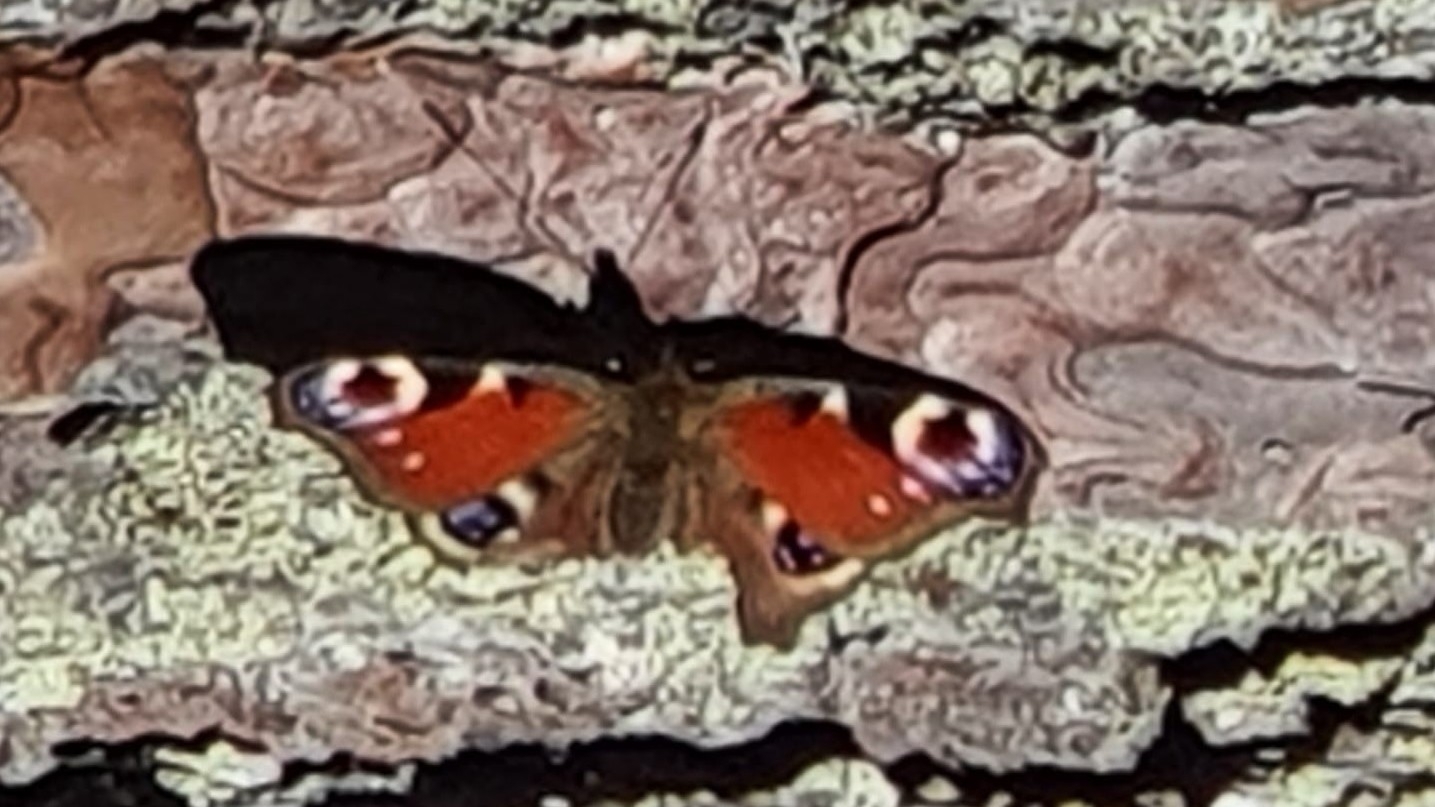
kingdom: Animalia
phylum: Arthropoda
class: Insecta
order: Lepidoptera
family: Nymphalidae
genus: Aglais
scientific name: Aglais io
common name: Peacock
